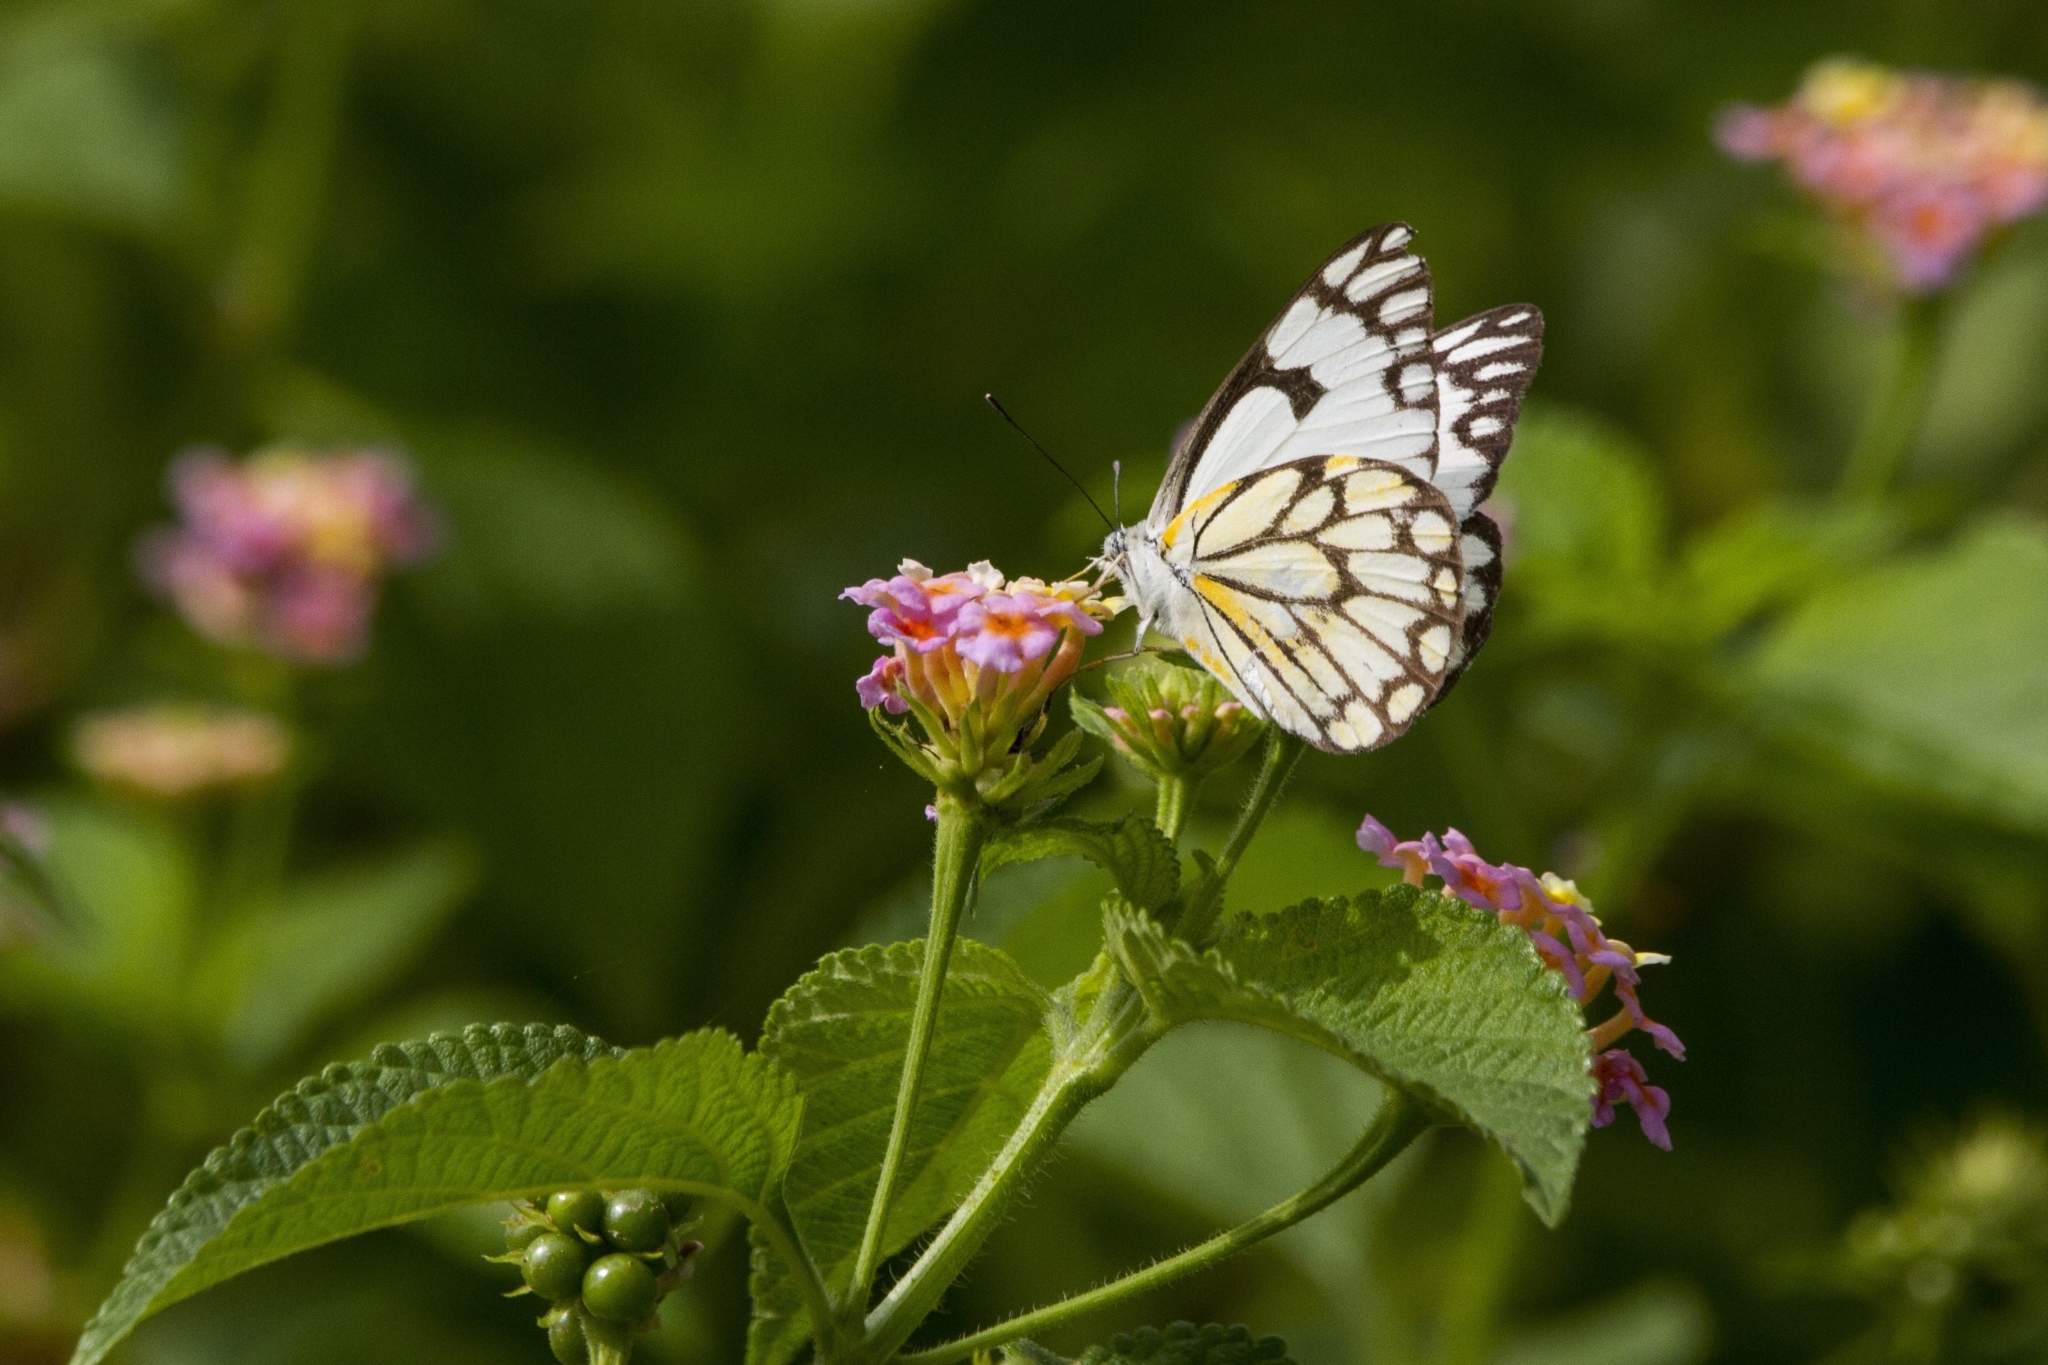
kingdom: Animalia
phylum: Arthropoda
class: Insecta
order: Lepidoptera
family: Pieridae
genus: Belenois
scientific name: Belenois aurota
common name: Brown-veined white
